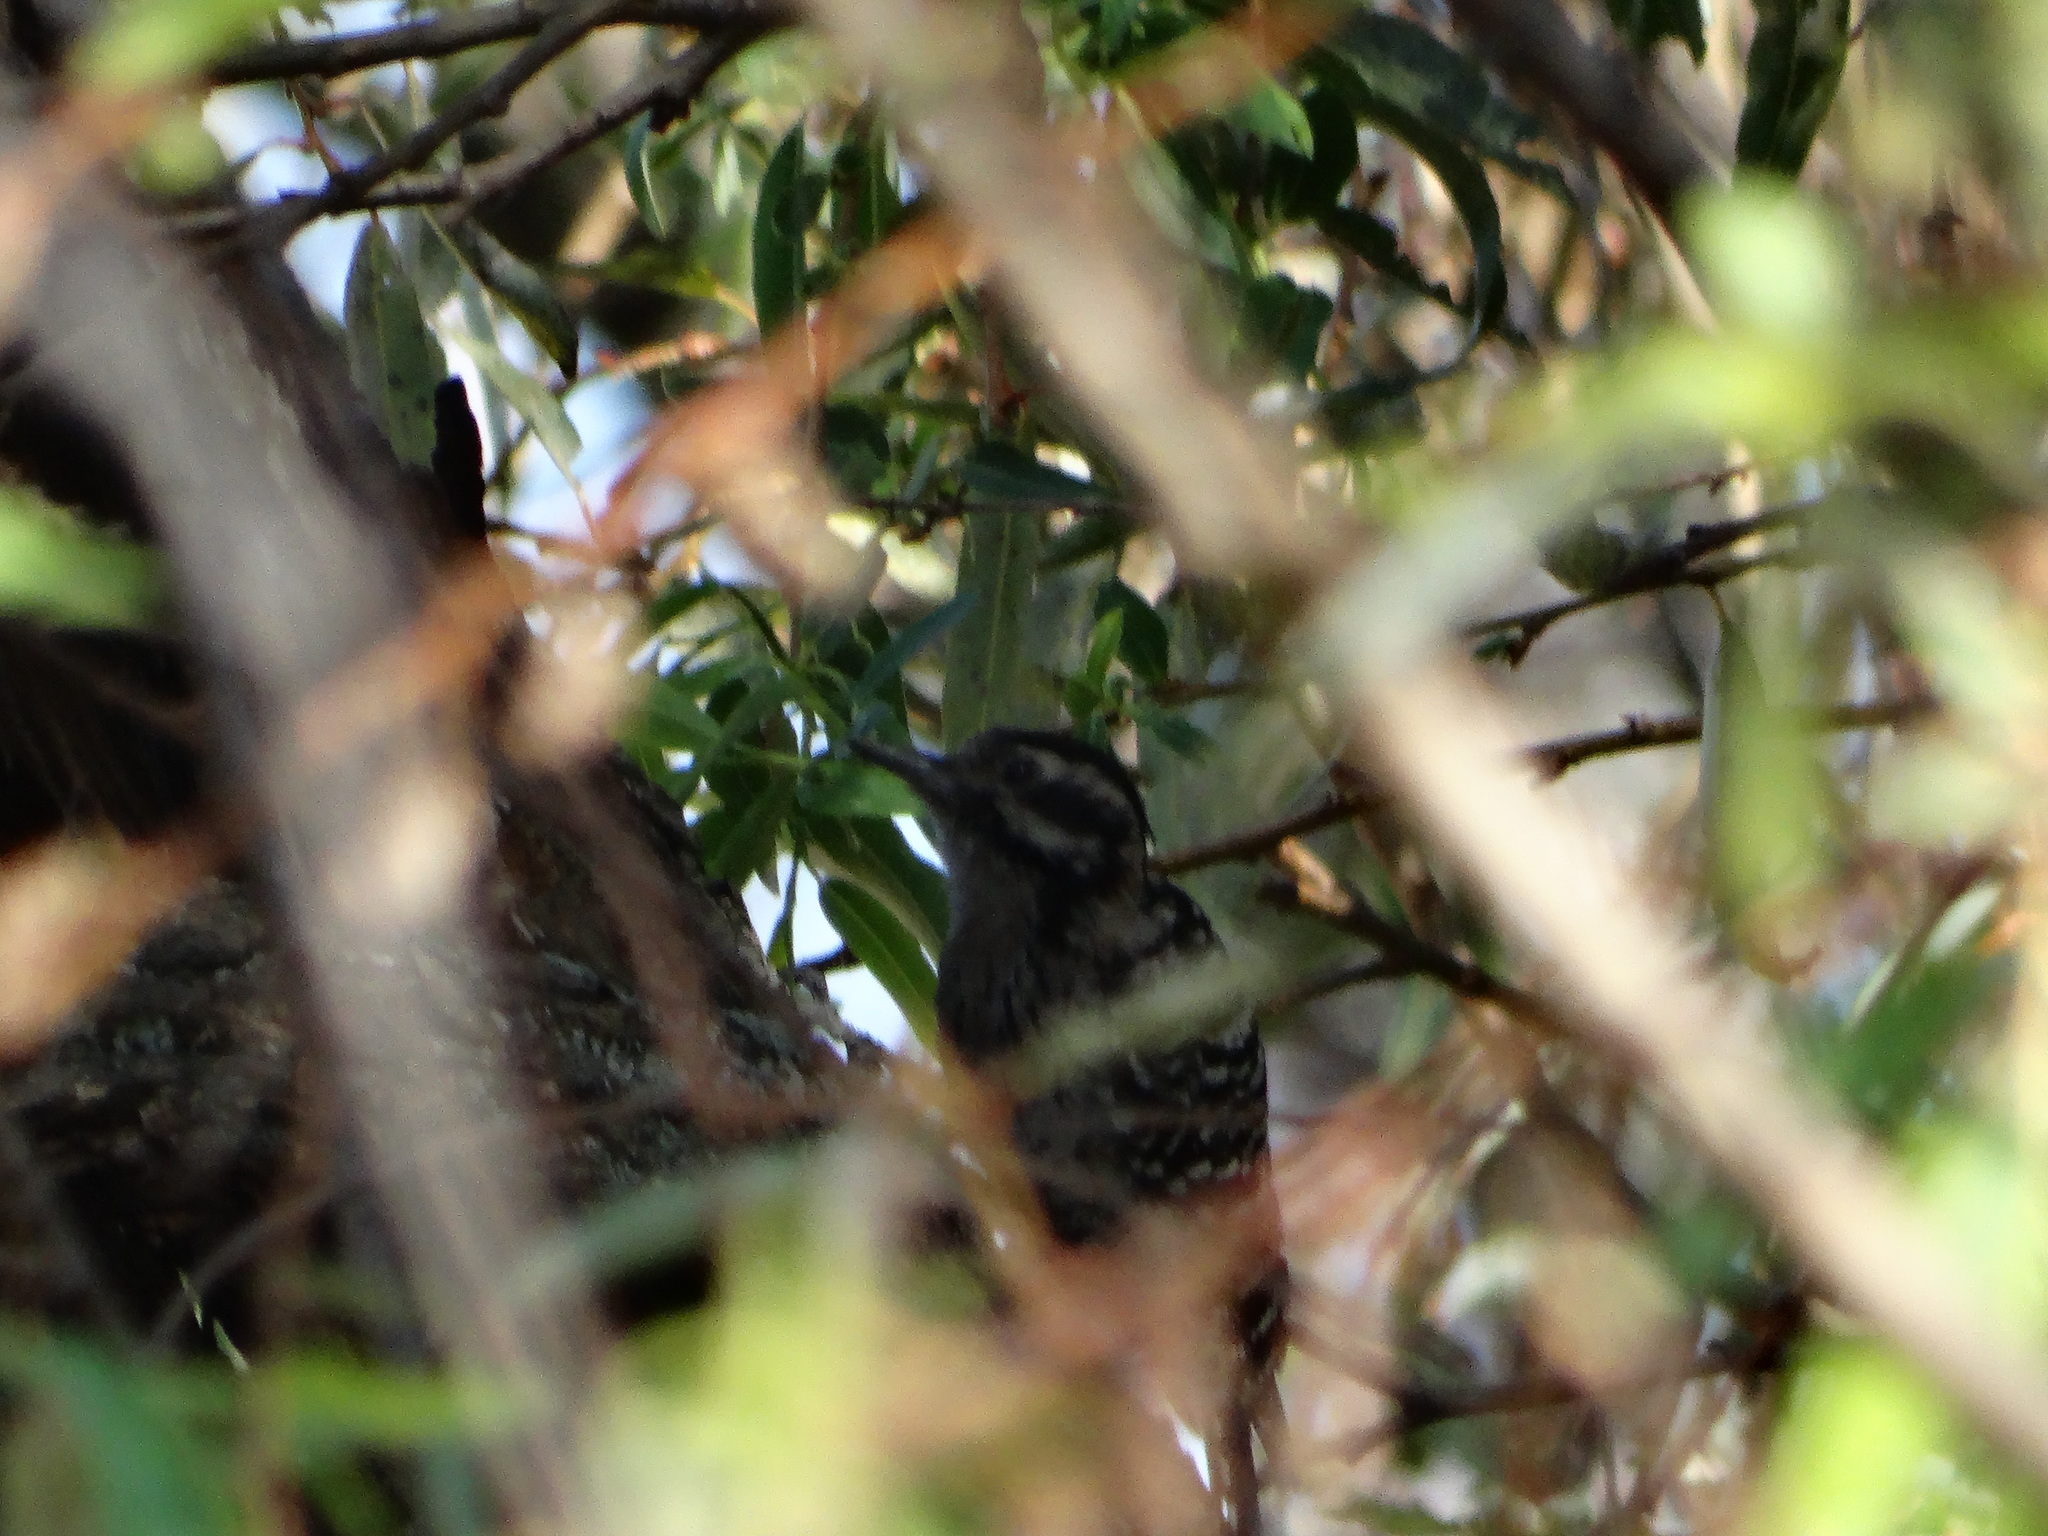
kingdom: Animalia
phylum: Chordata
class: Aves
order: Piciformes
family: Picidae
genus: Dryobates
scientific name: Dryobates scalaris
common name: Ladder-backed woodpecker
